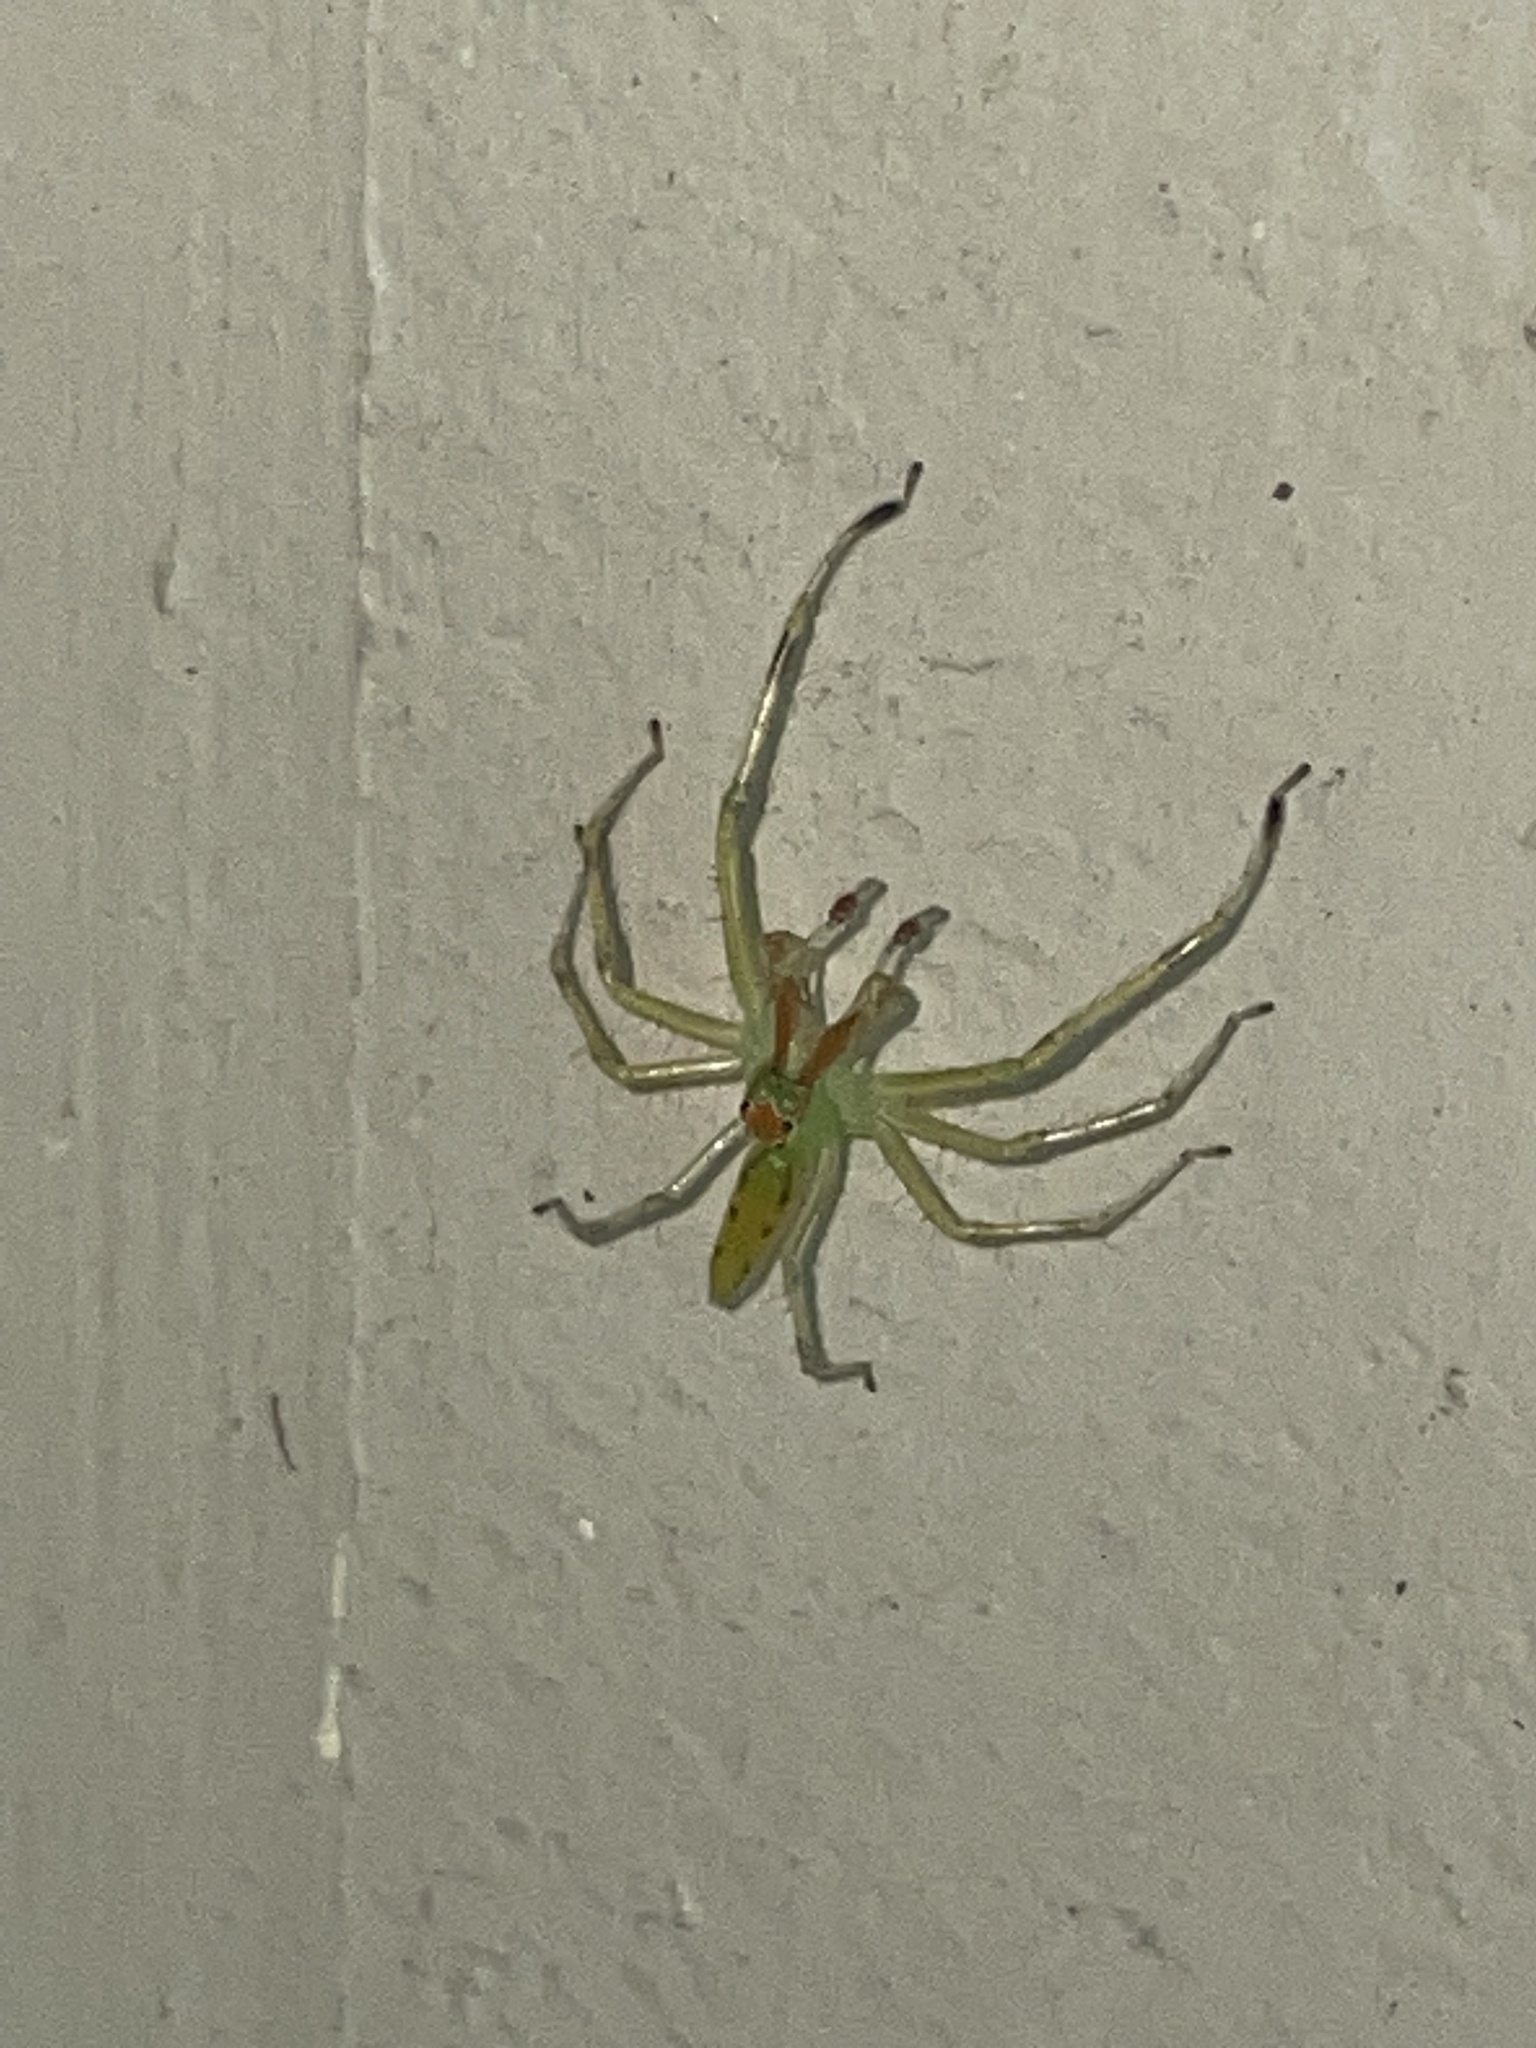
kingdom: Animalia
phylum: Arthropoda
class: Arachnida
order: Araneae
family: Salticidae
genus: Lyssomanes
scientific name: Lyssomanes viridis
